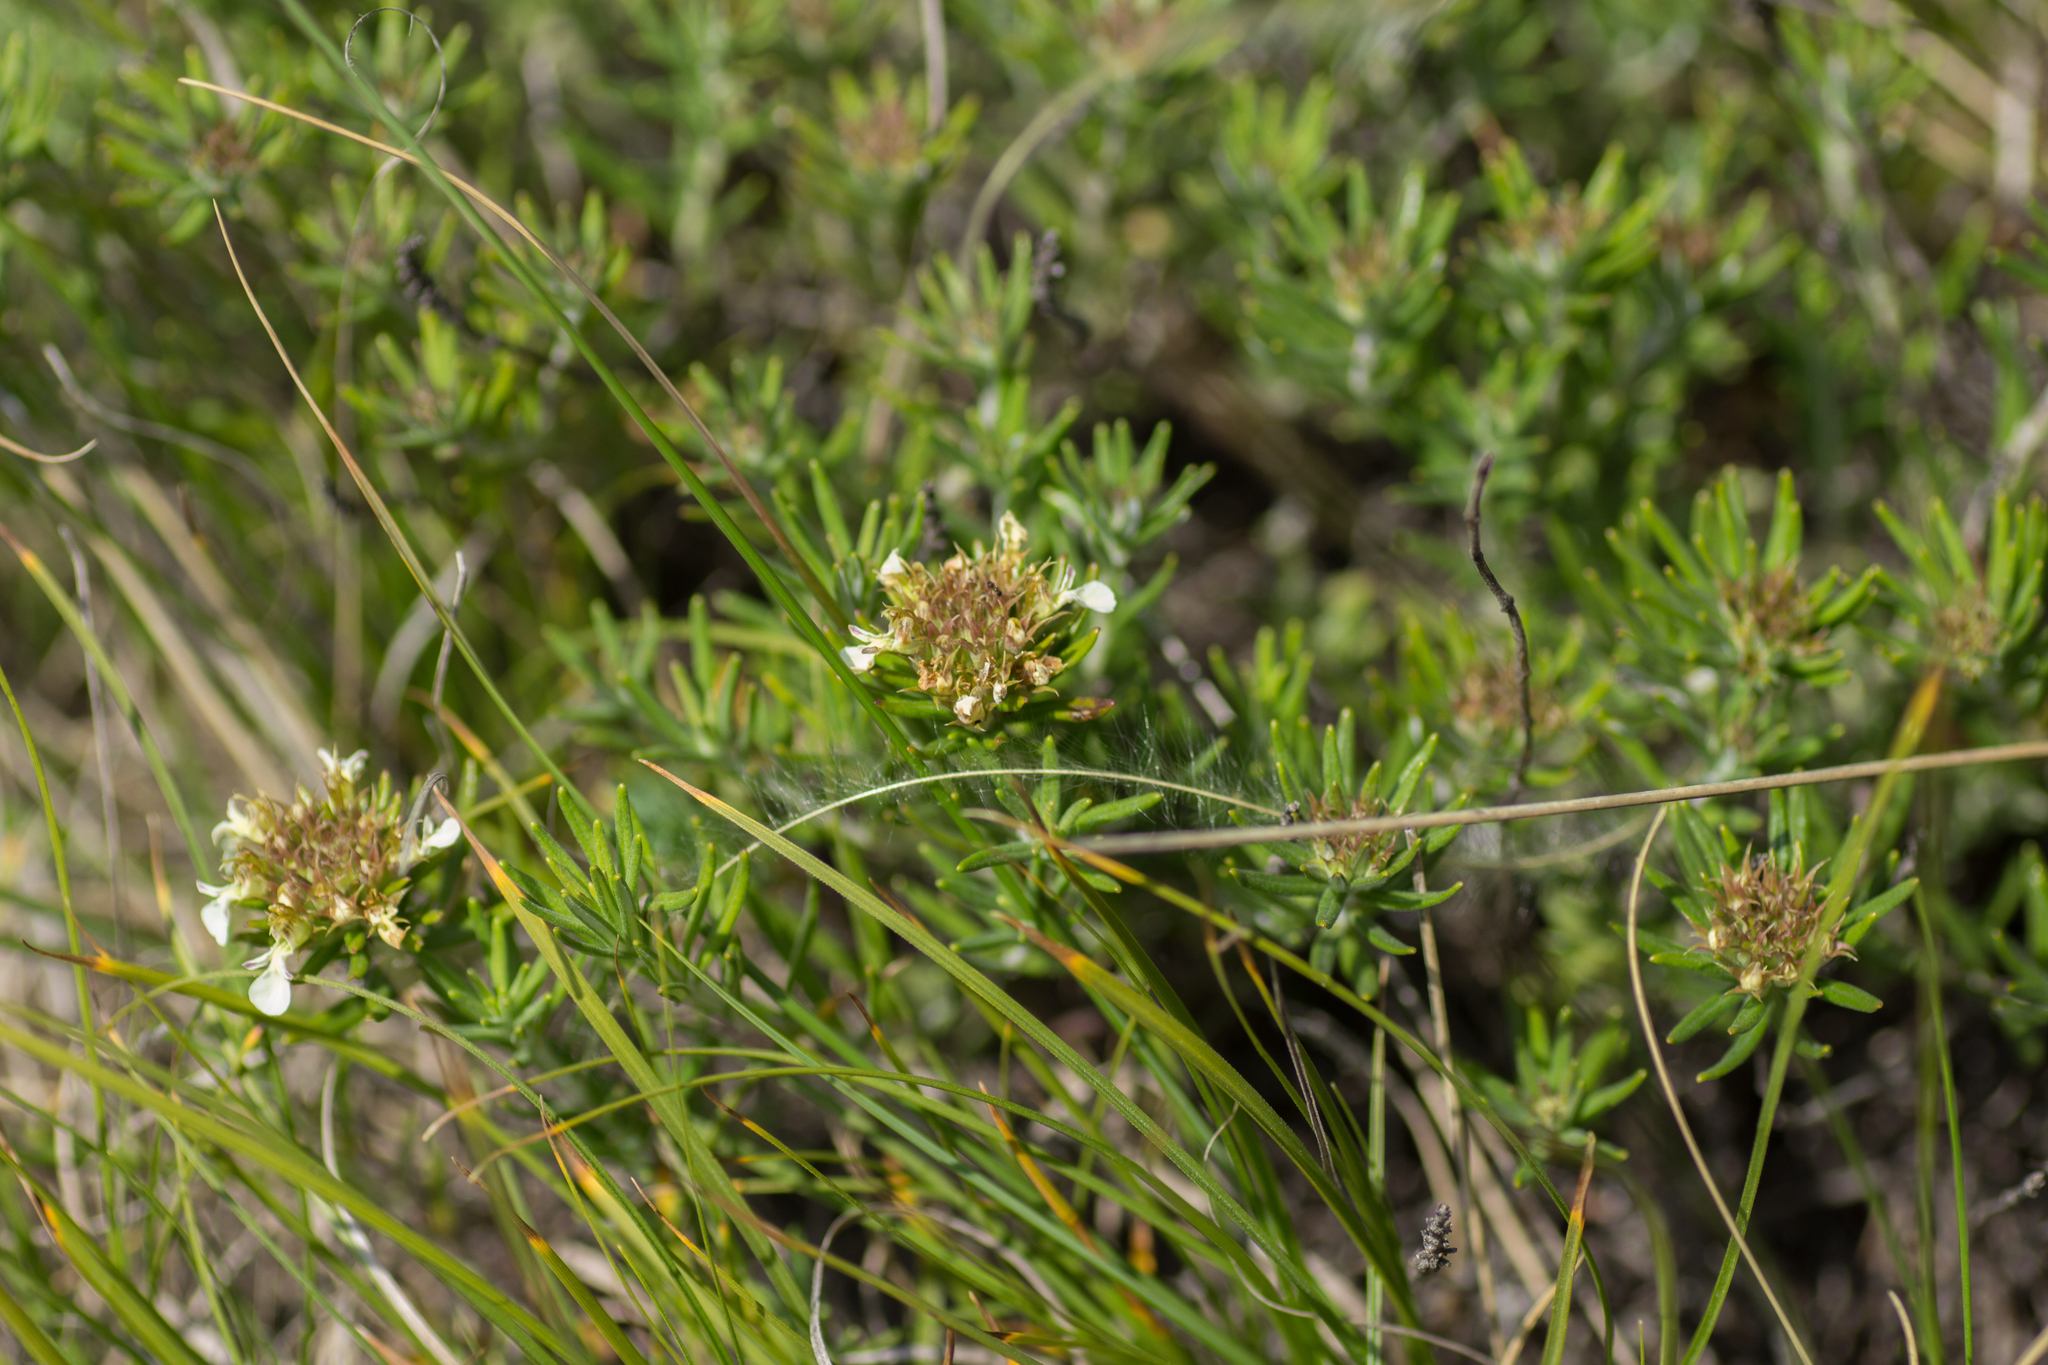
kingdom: Plantae
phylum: Tracheophyta
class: Magnoliopsida
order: Lamiales
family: Lamiaceae
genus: Teucrium
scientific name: Teucrium montanum
